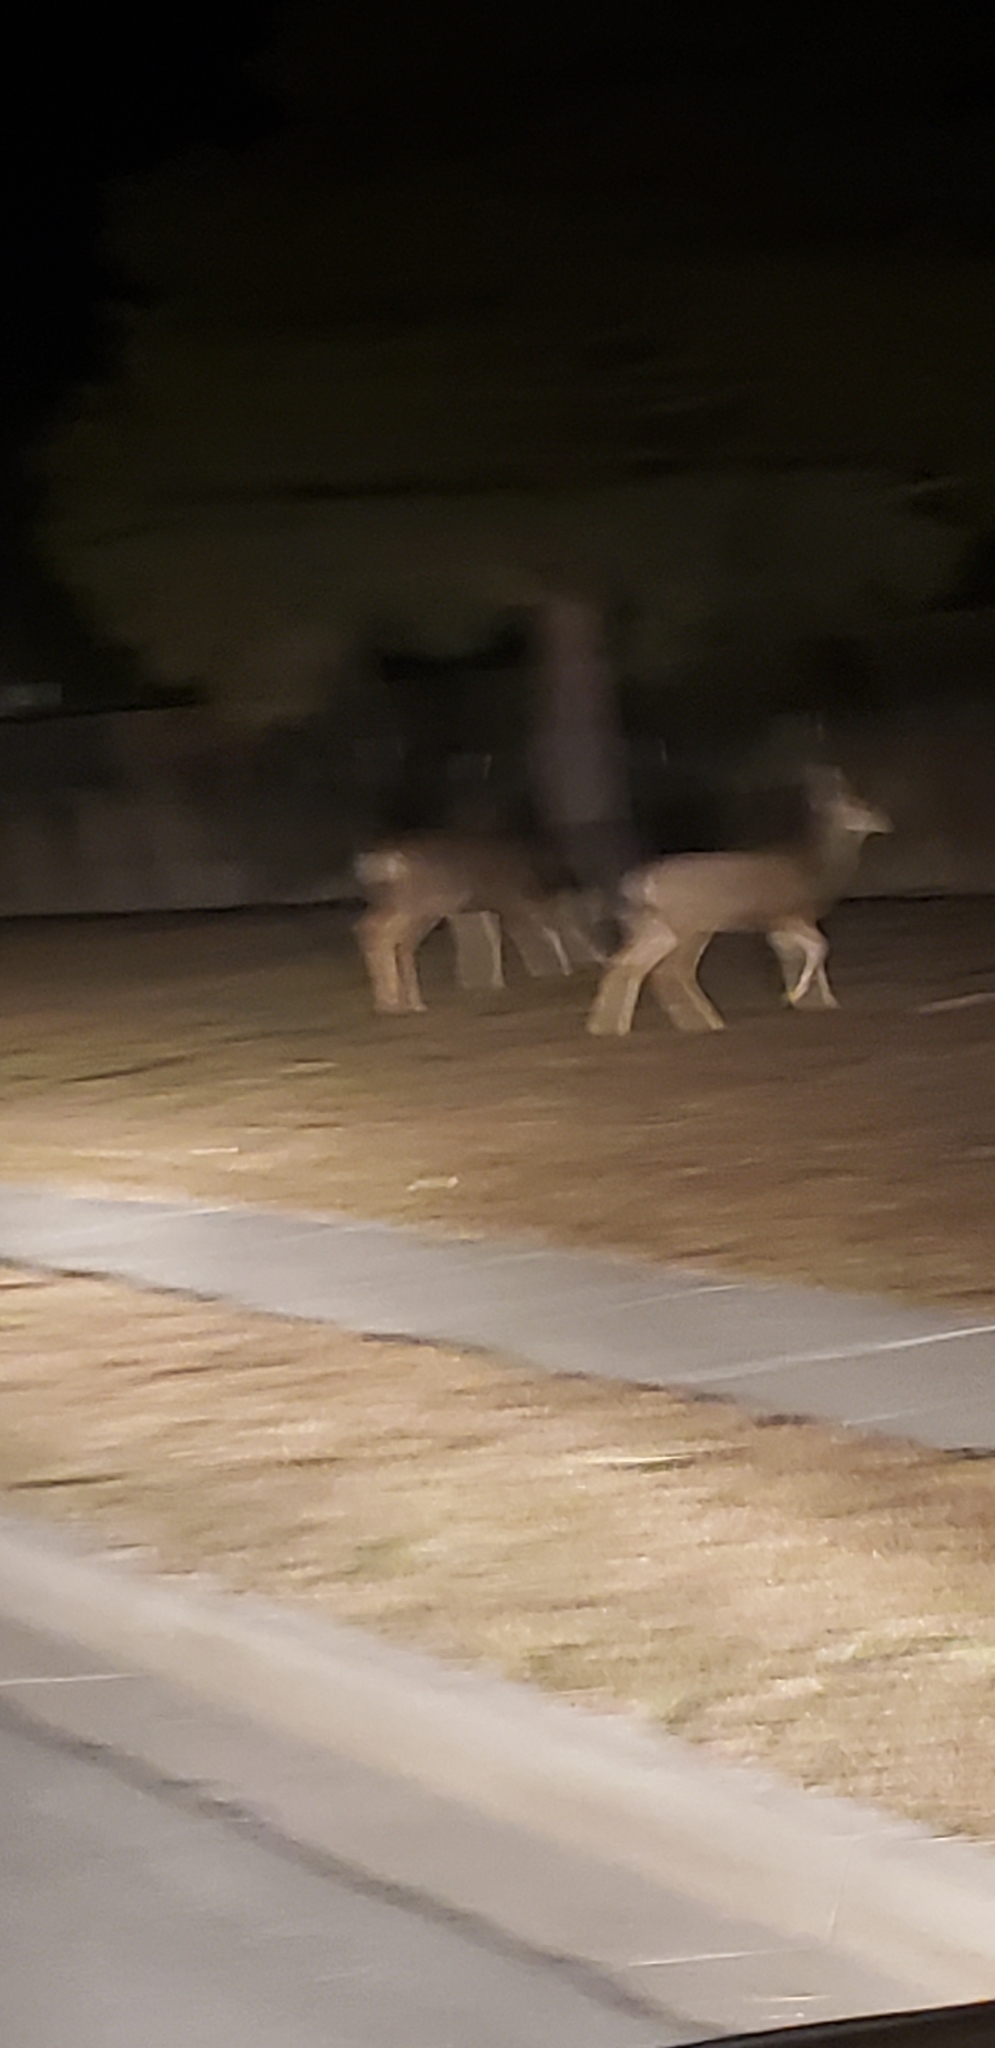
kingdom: Animalia
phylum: Chordata
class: Mammalia
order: Artiodactyla
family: Cervidae
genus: Odocoileus
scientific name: Odocoileus hemionus
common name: Mule deer
